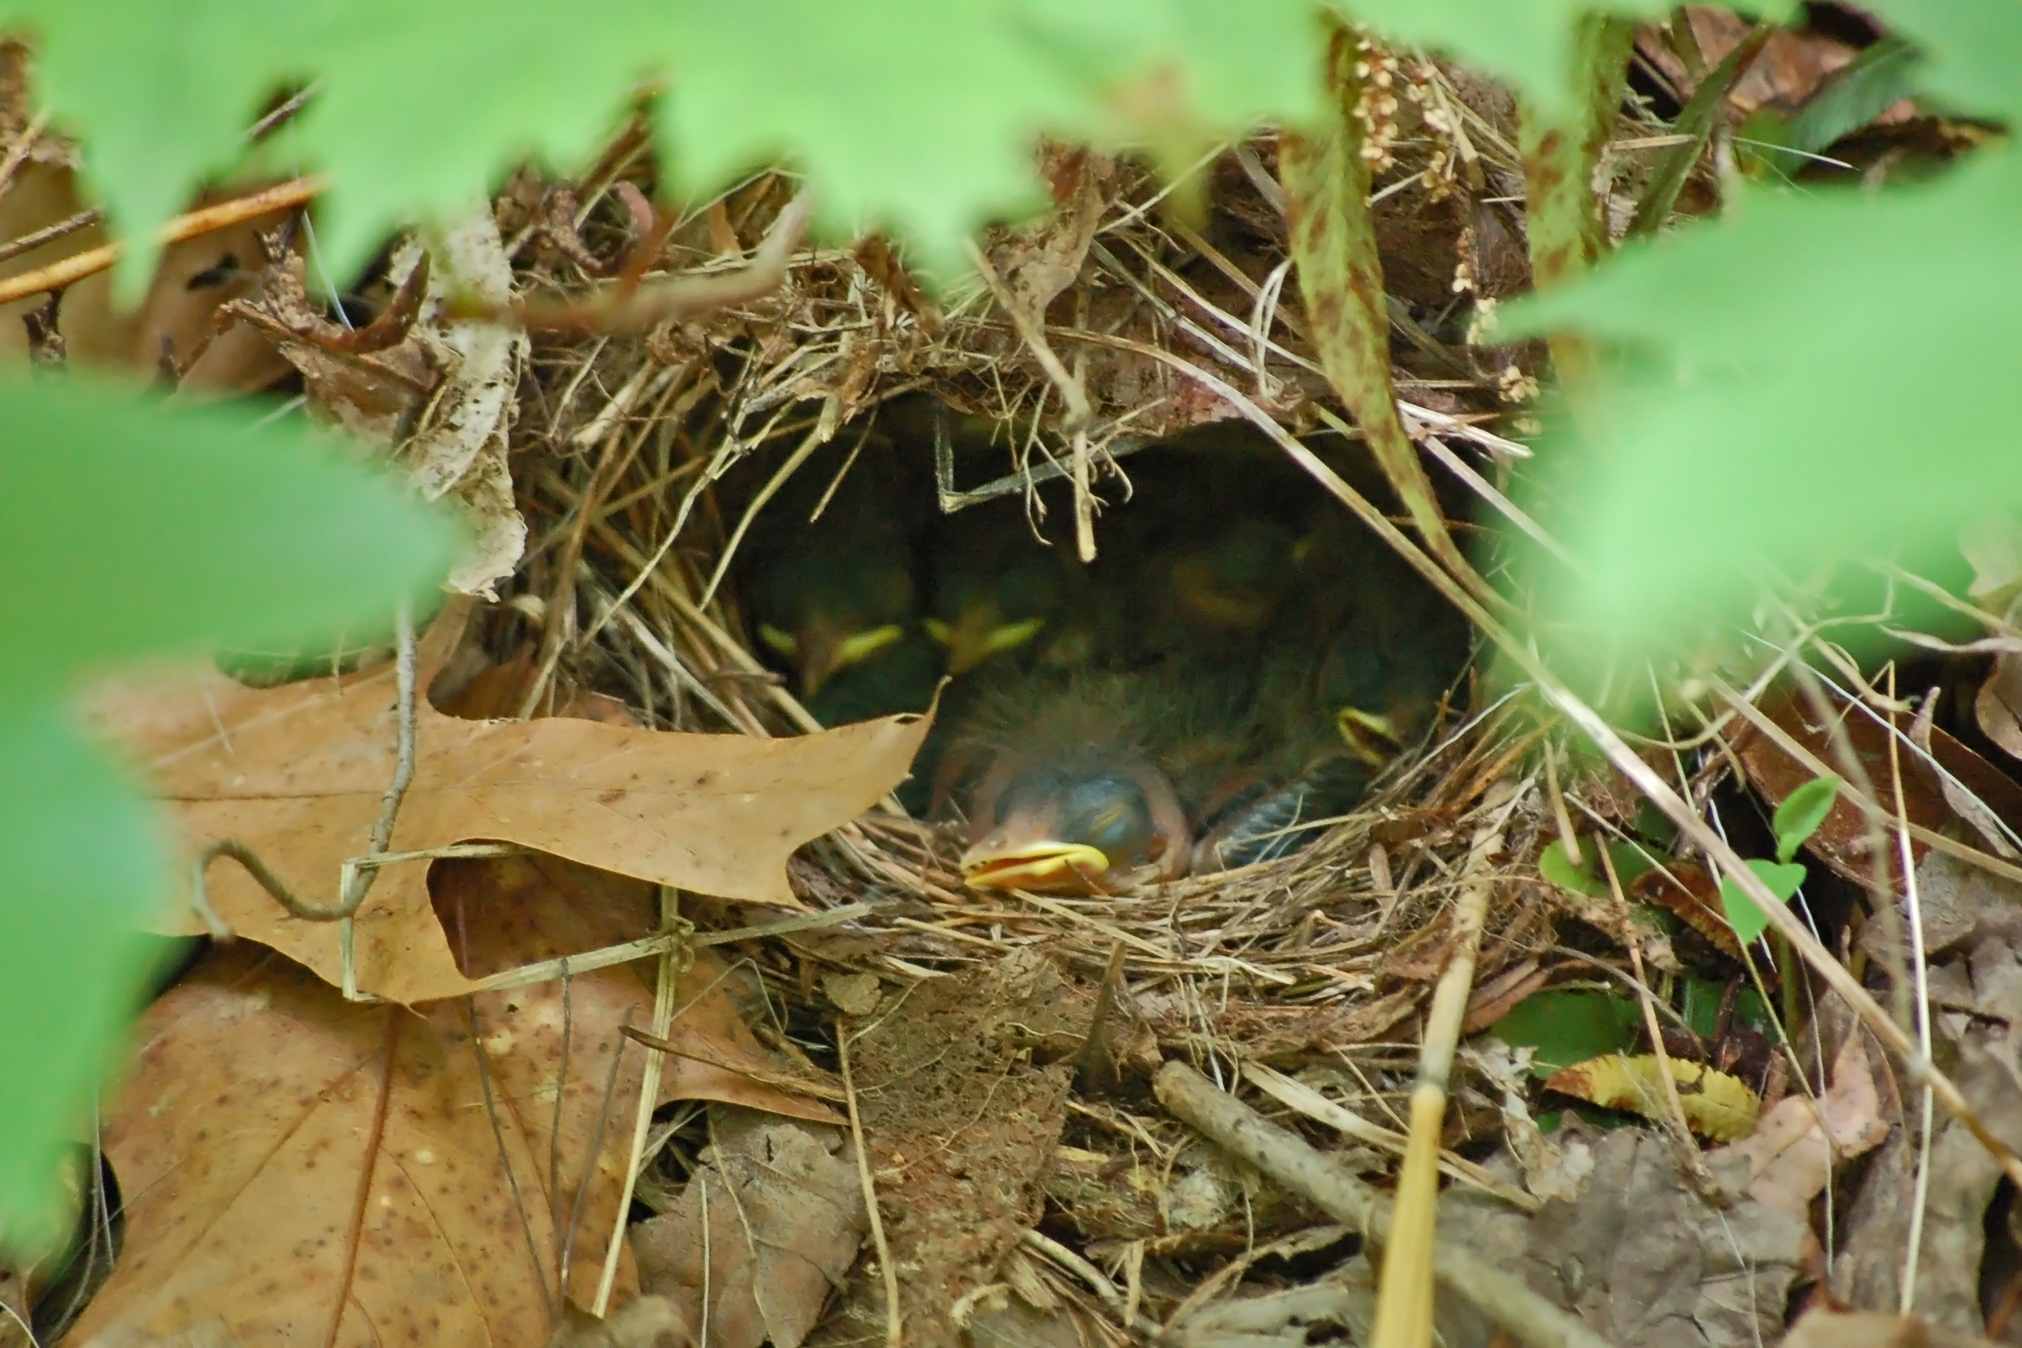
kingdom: Animalia
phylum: Chordata
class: Aves
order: Passeriformes
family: Parulidae
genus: Seiurus
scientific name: Seiurus aurocapilla
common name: Ovenbird
